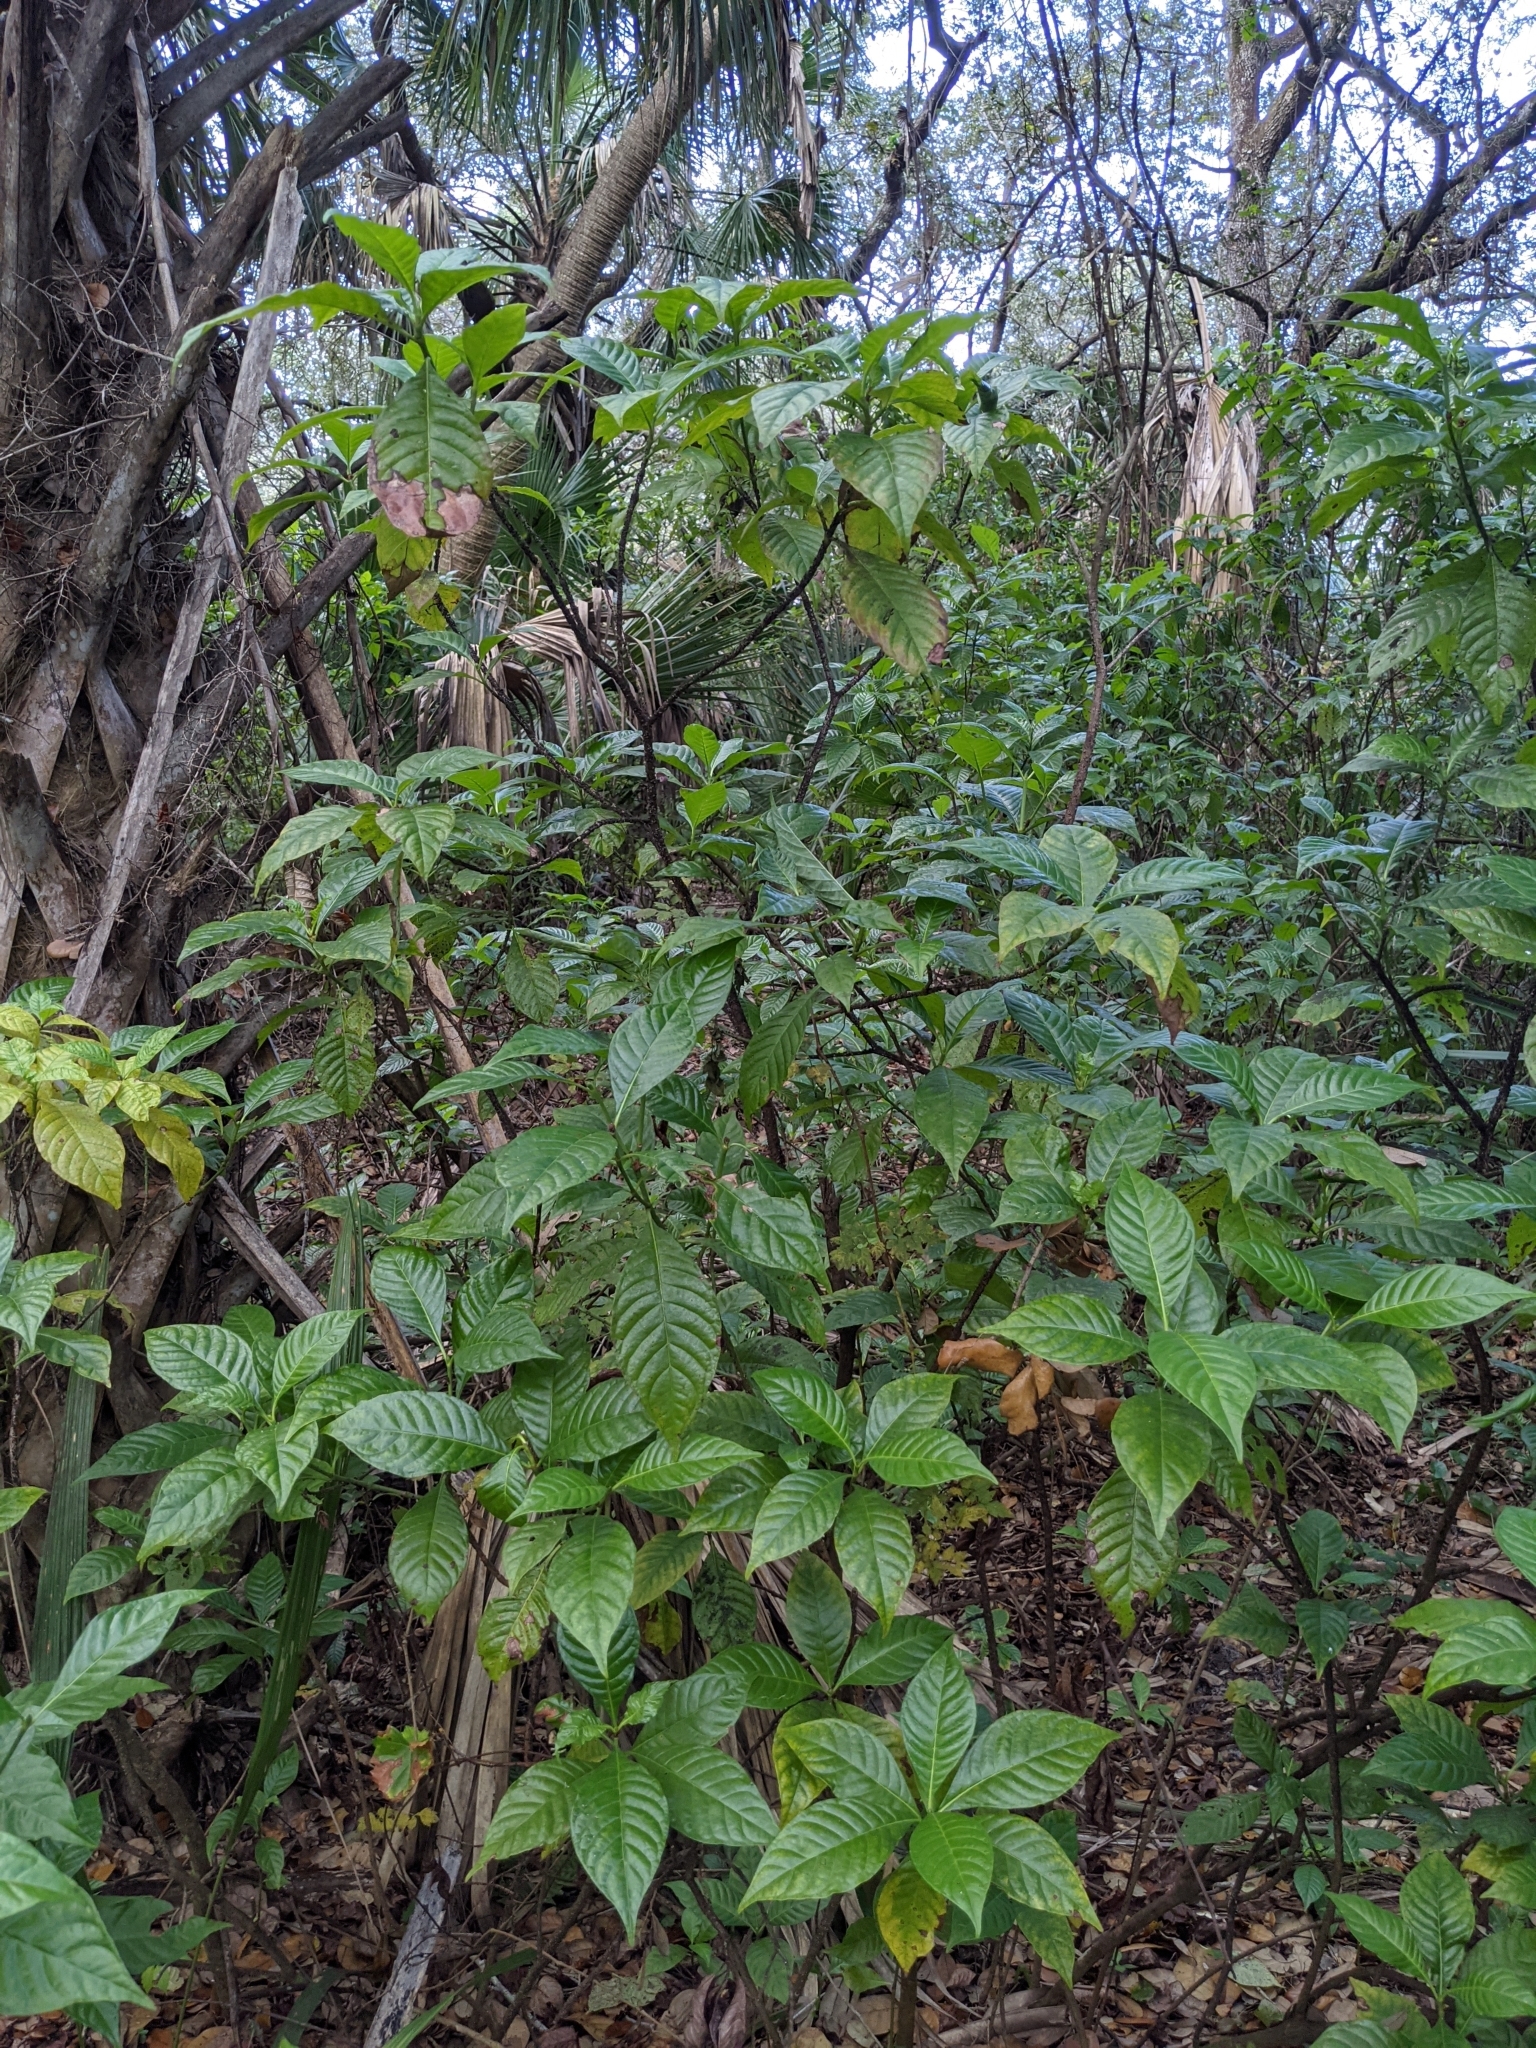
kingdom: Plantae
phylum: Tracheophyta
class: Magnoliopsida
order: Gentianales
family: Rubiaceae
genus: Psychotria
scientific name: Psychotria nervosa
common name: Bastard cankerberry
